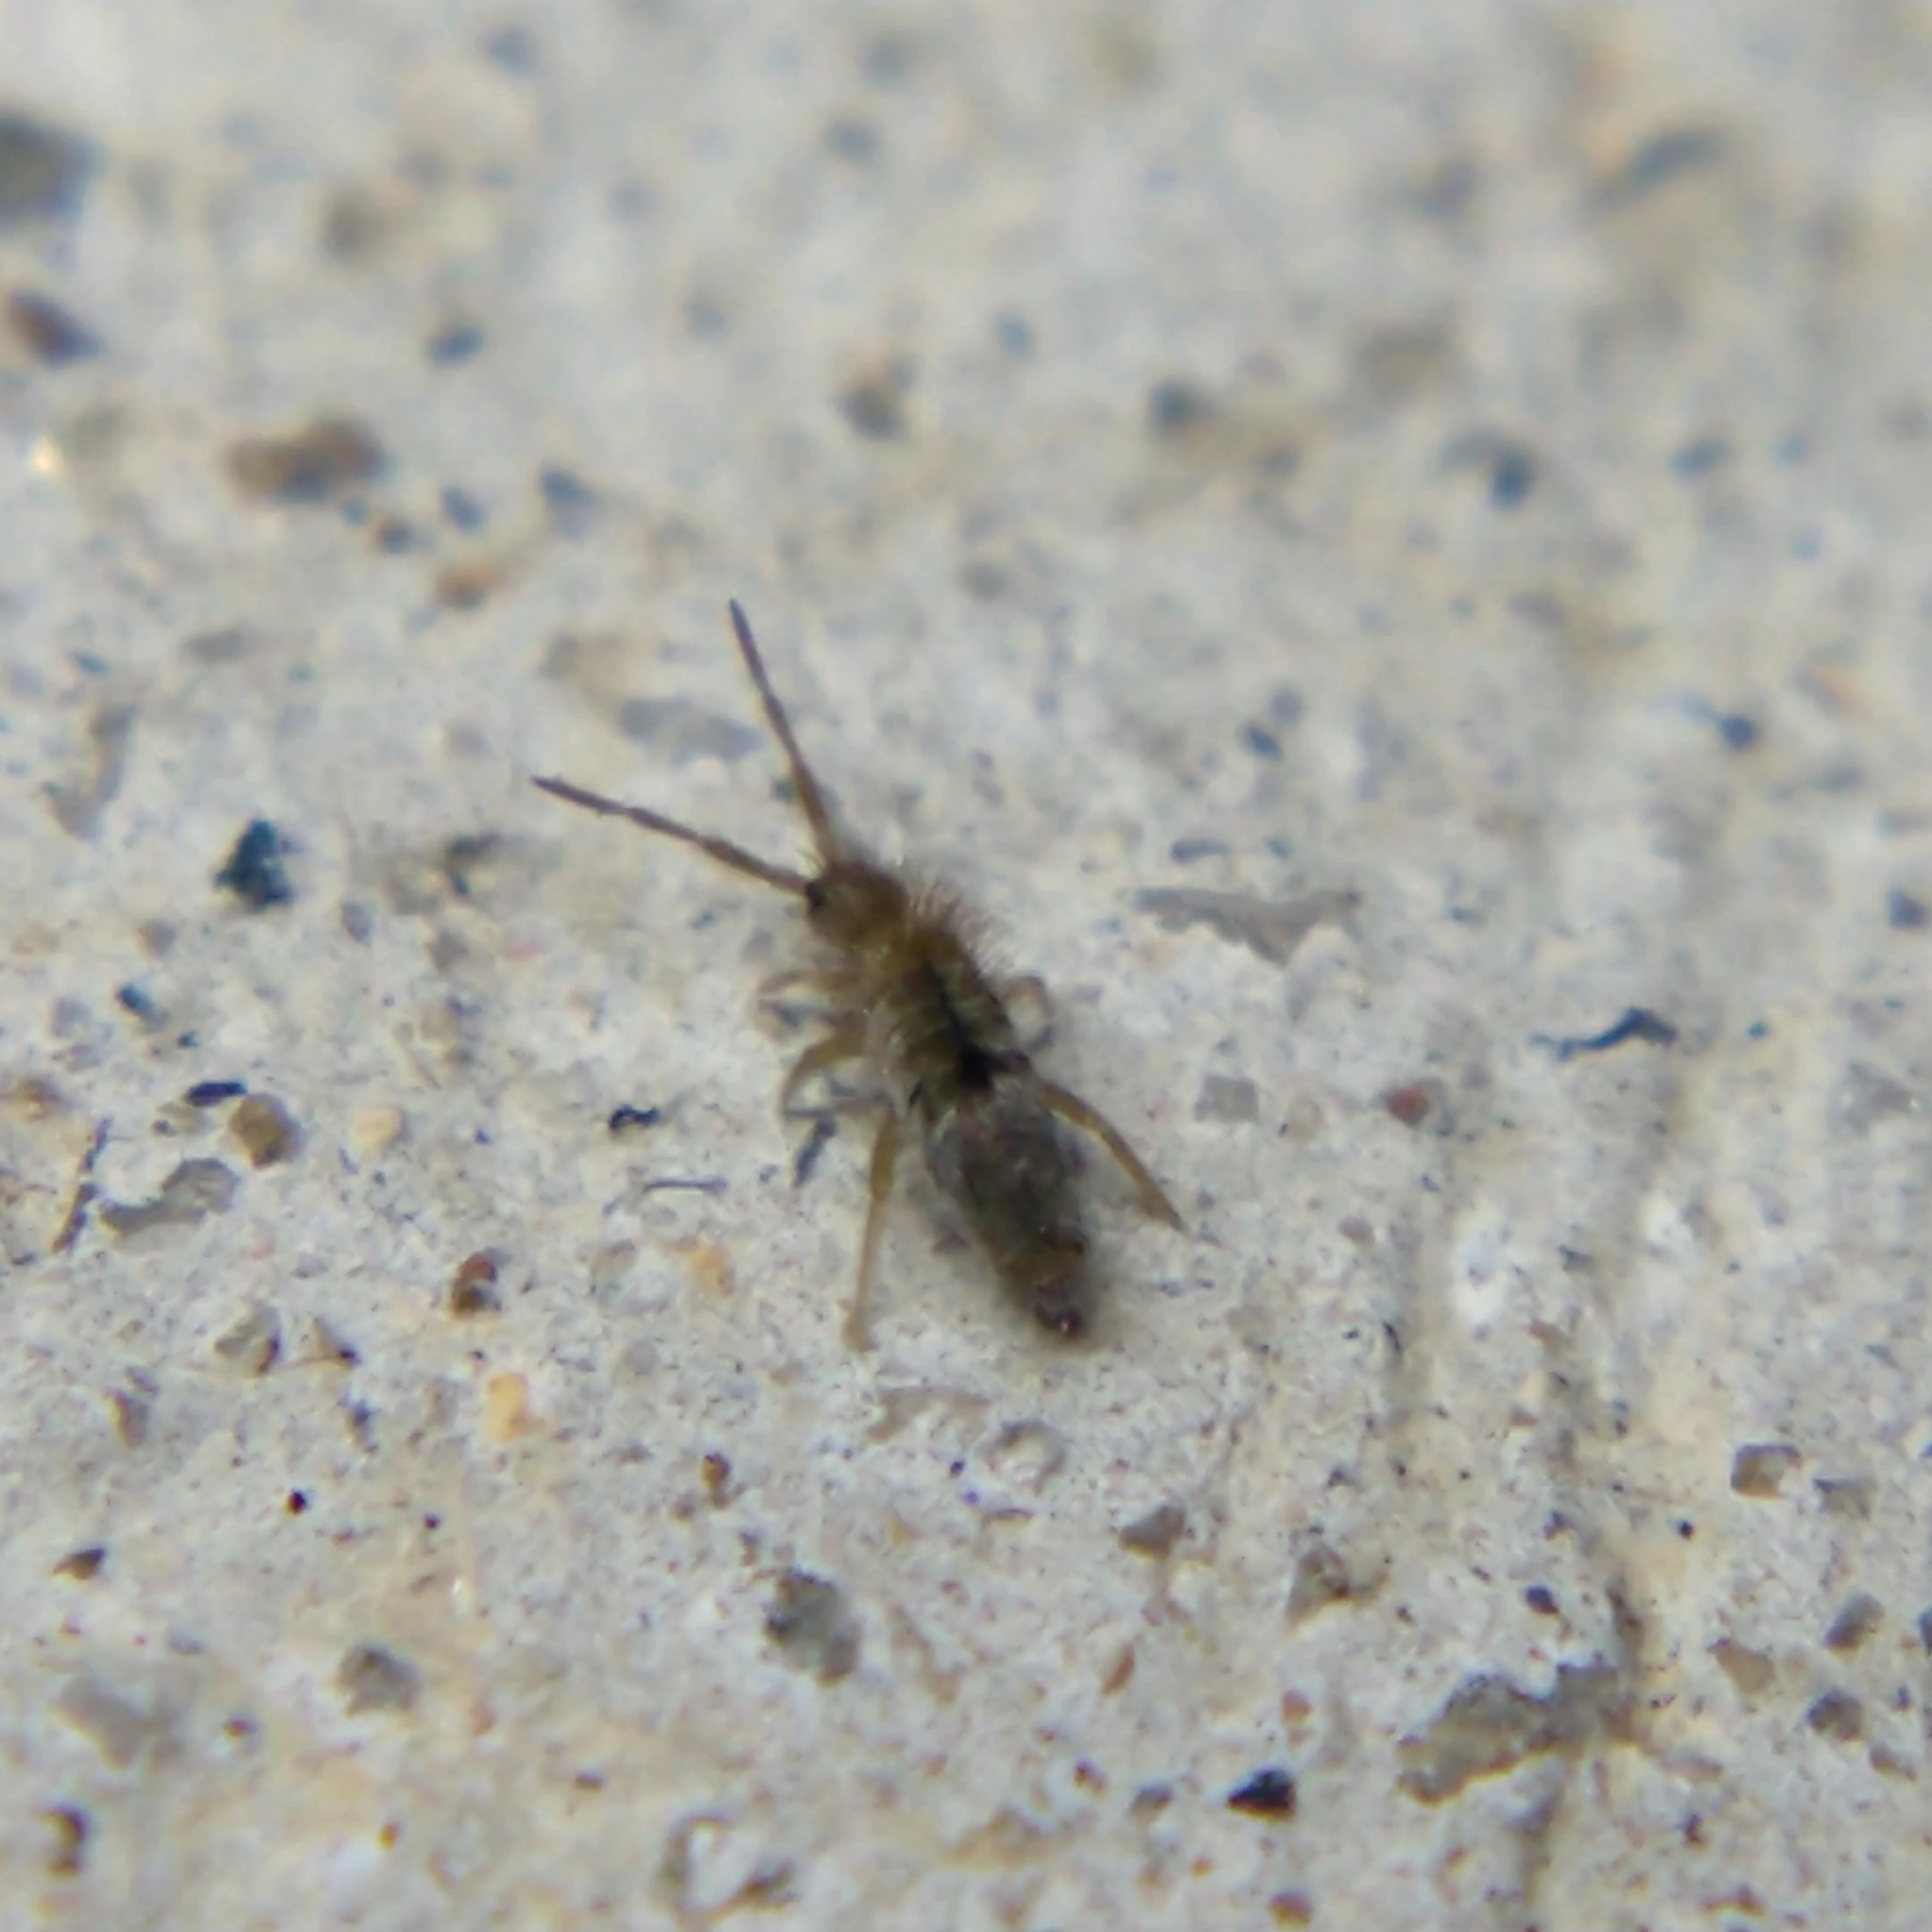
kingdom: Animalia
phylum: Arthropoda
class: Collembola
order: Entomobryomorpha
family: Entomobryidae
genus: Entomobrya
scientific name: Entomobrya unostrigata
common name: Springtail
